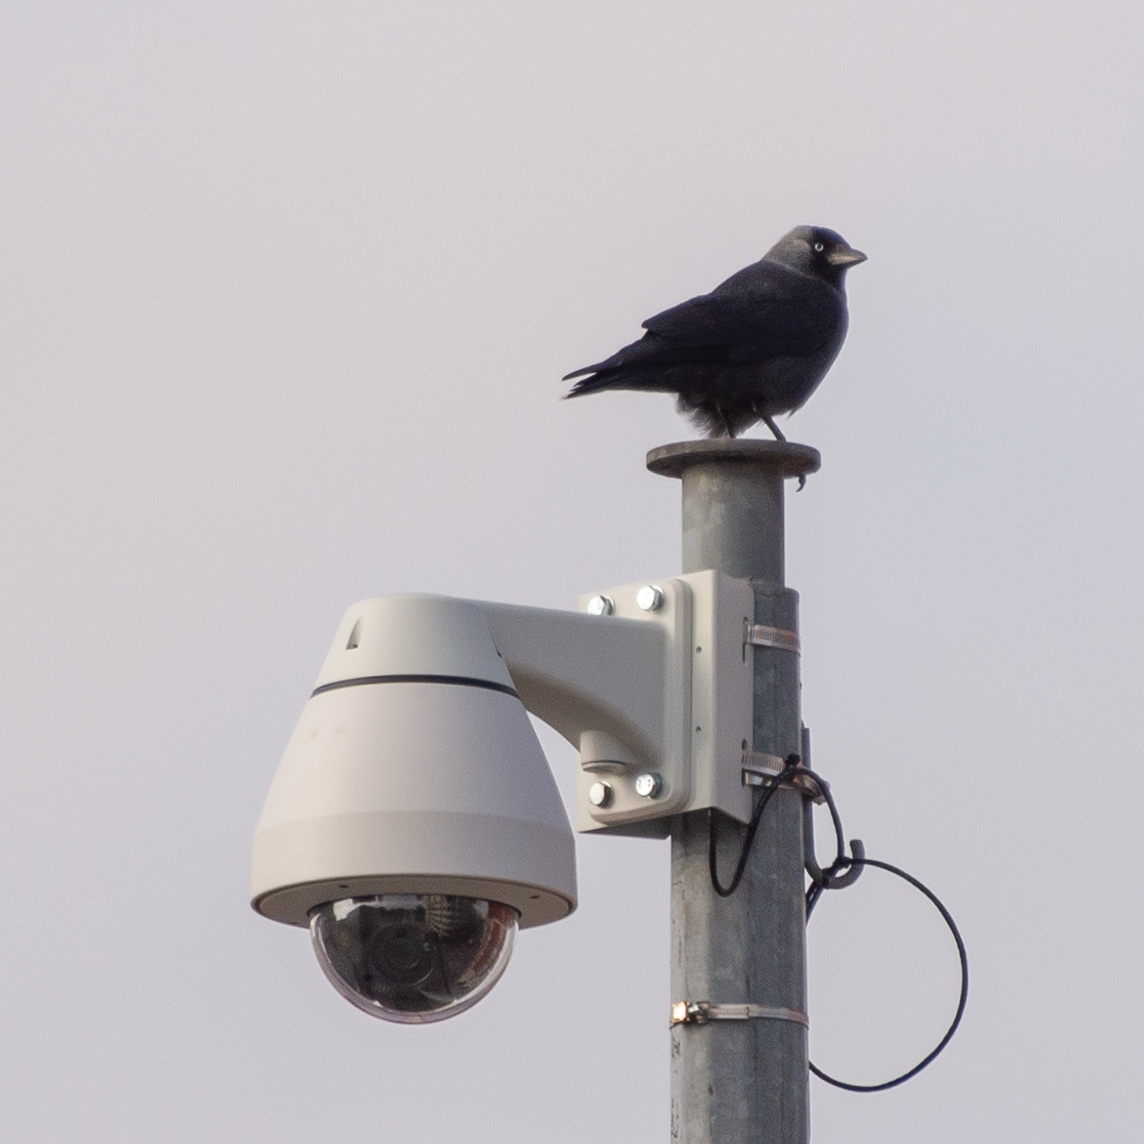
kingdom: Animalia
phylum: Chordata
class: Aves
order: Passeriformes
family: Corvidae
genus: Coloeus
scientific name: Coloeus monedula
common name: Western jackdaw
